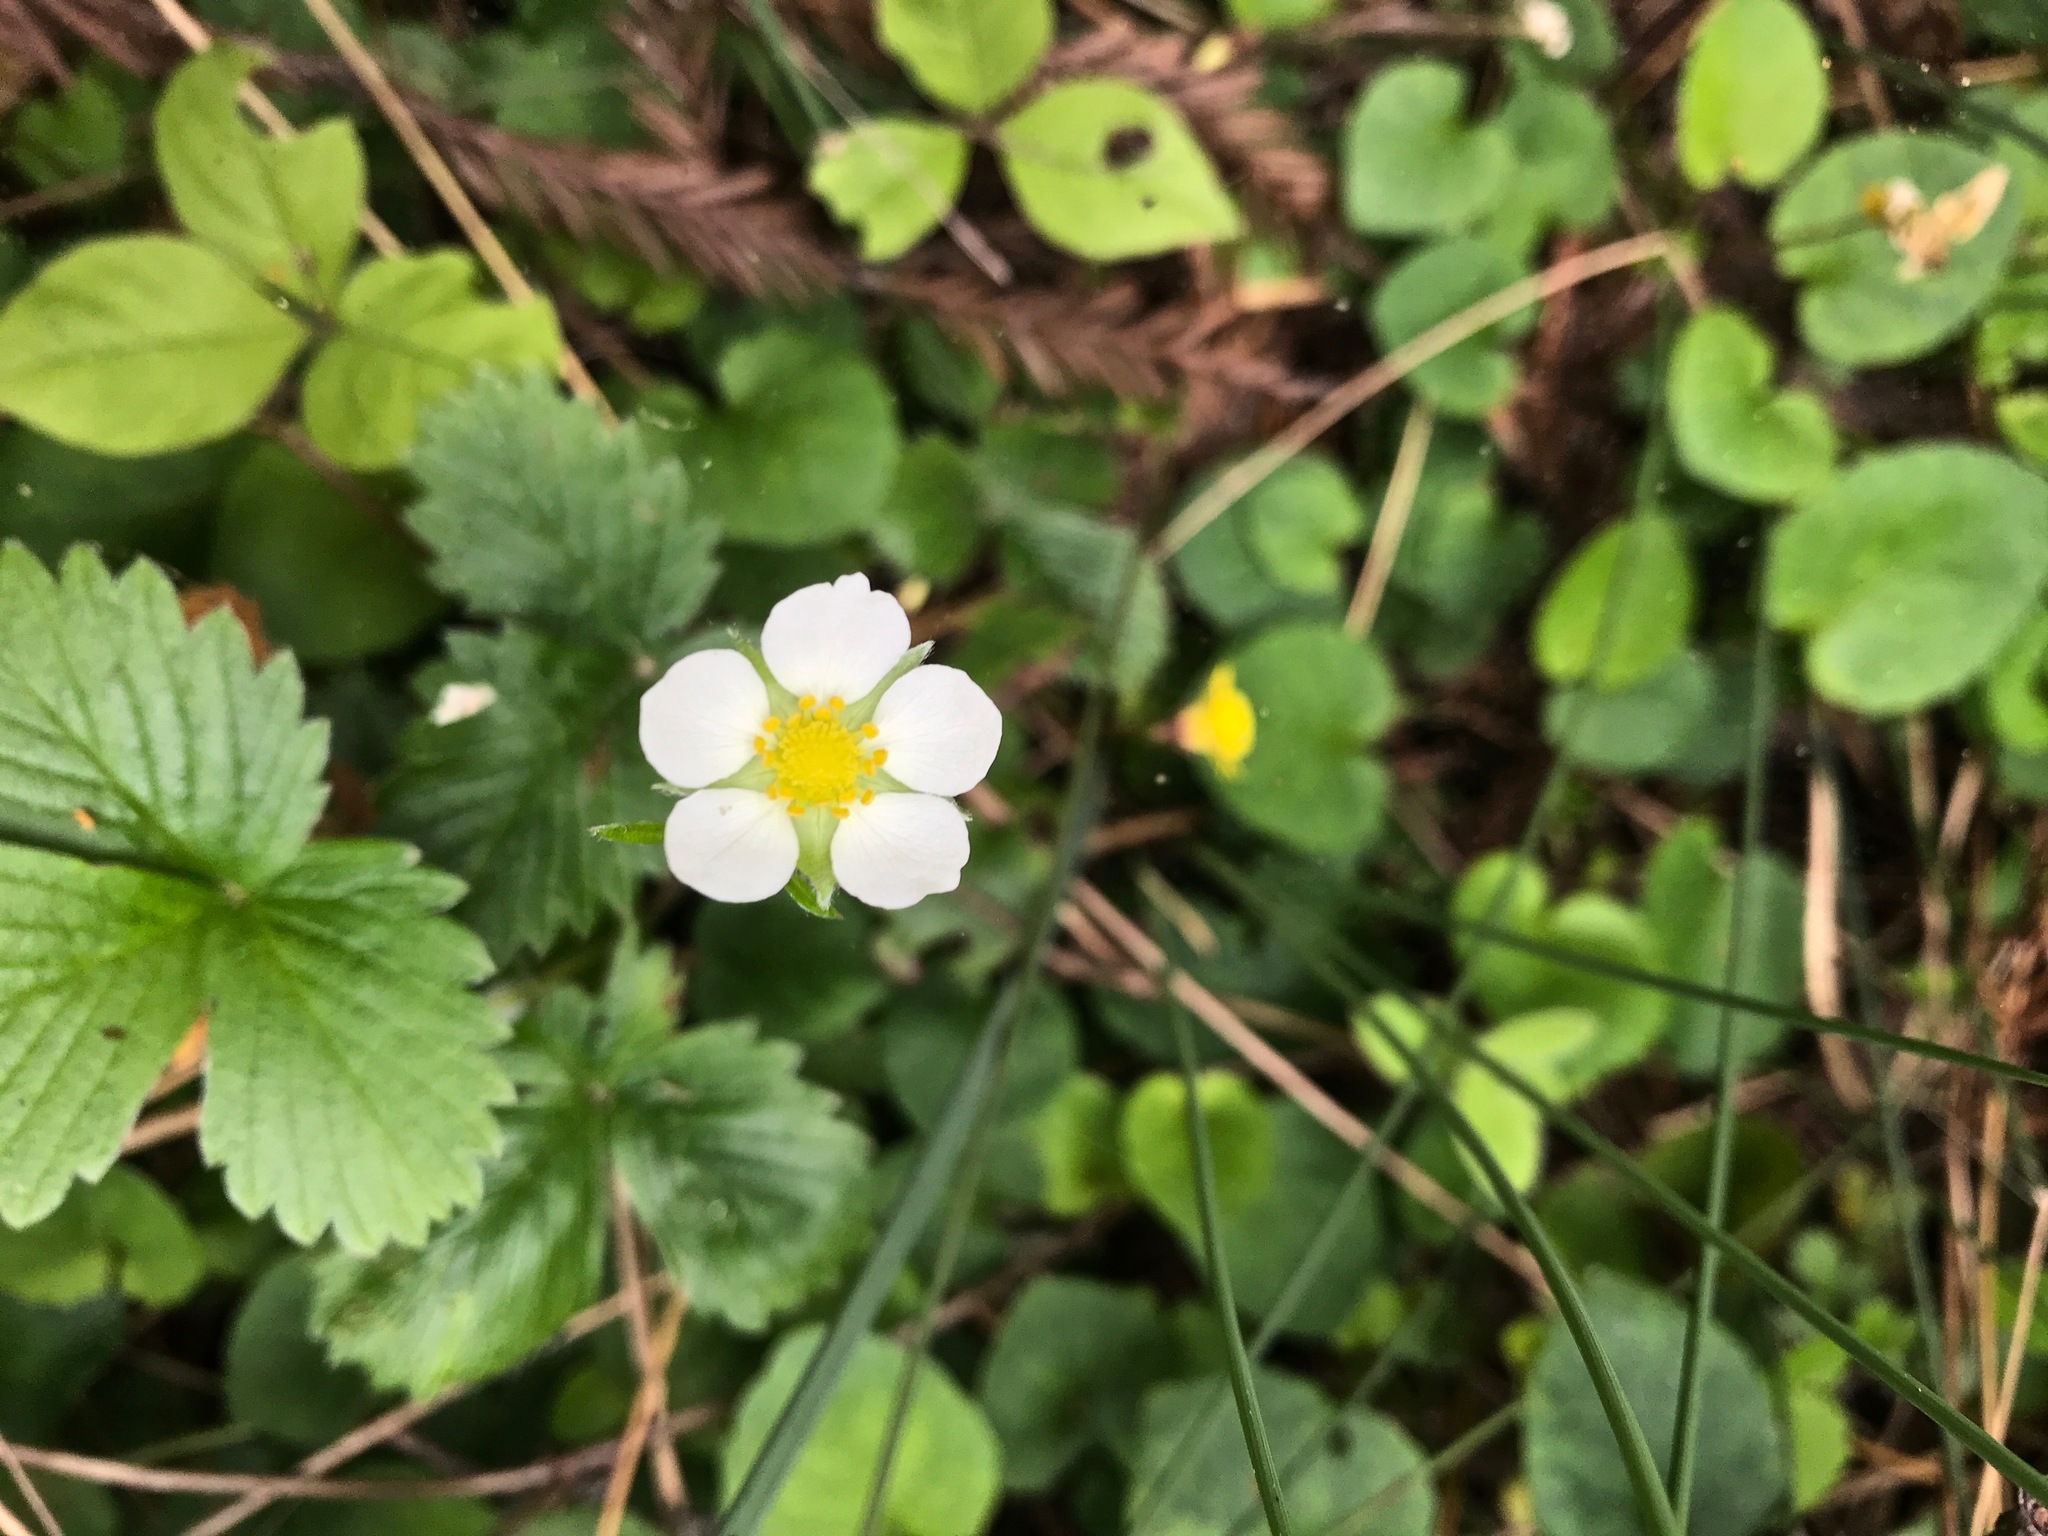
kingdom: Plantae
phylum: Tracheophyta
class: Magnoliopsida
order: Rosales
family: Rosaceae
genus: Fragaria
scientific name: Fragaria vesca
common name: Wild strawberry
